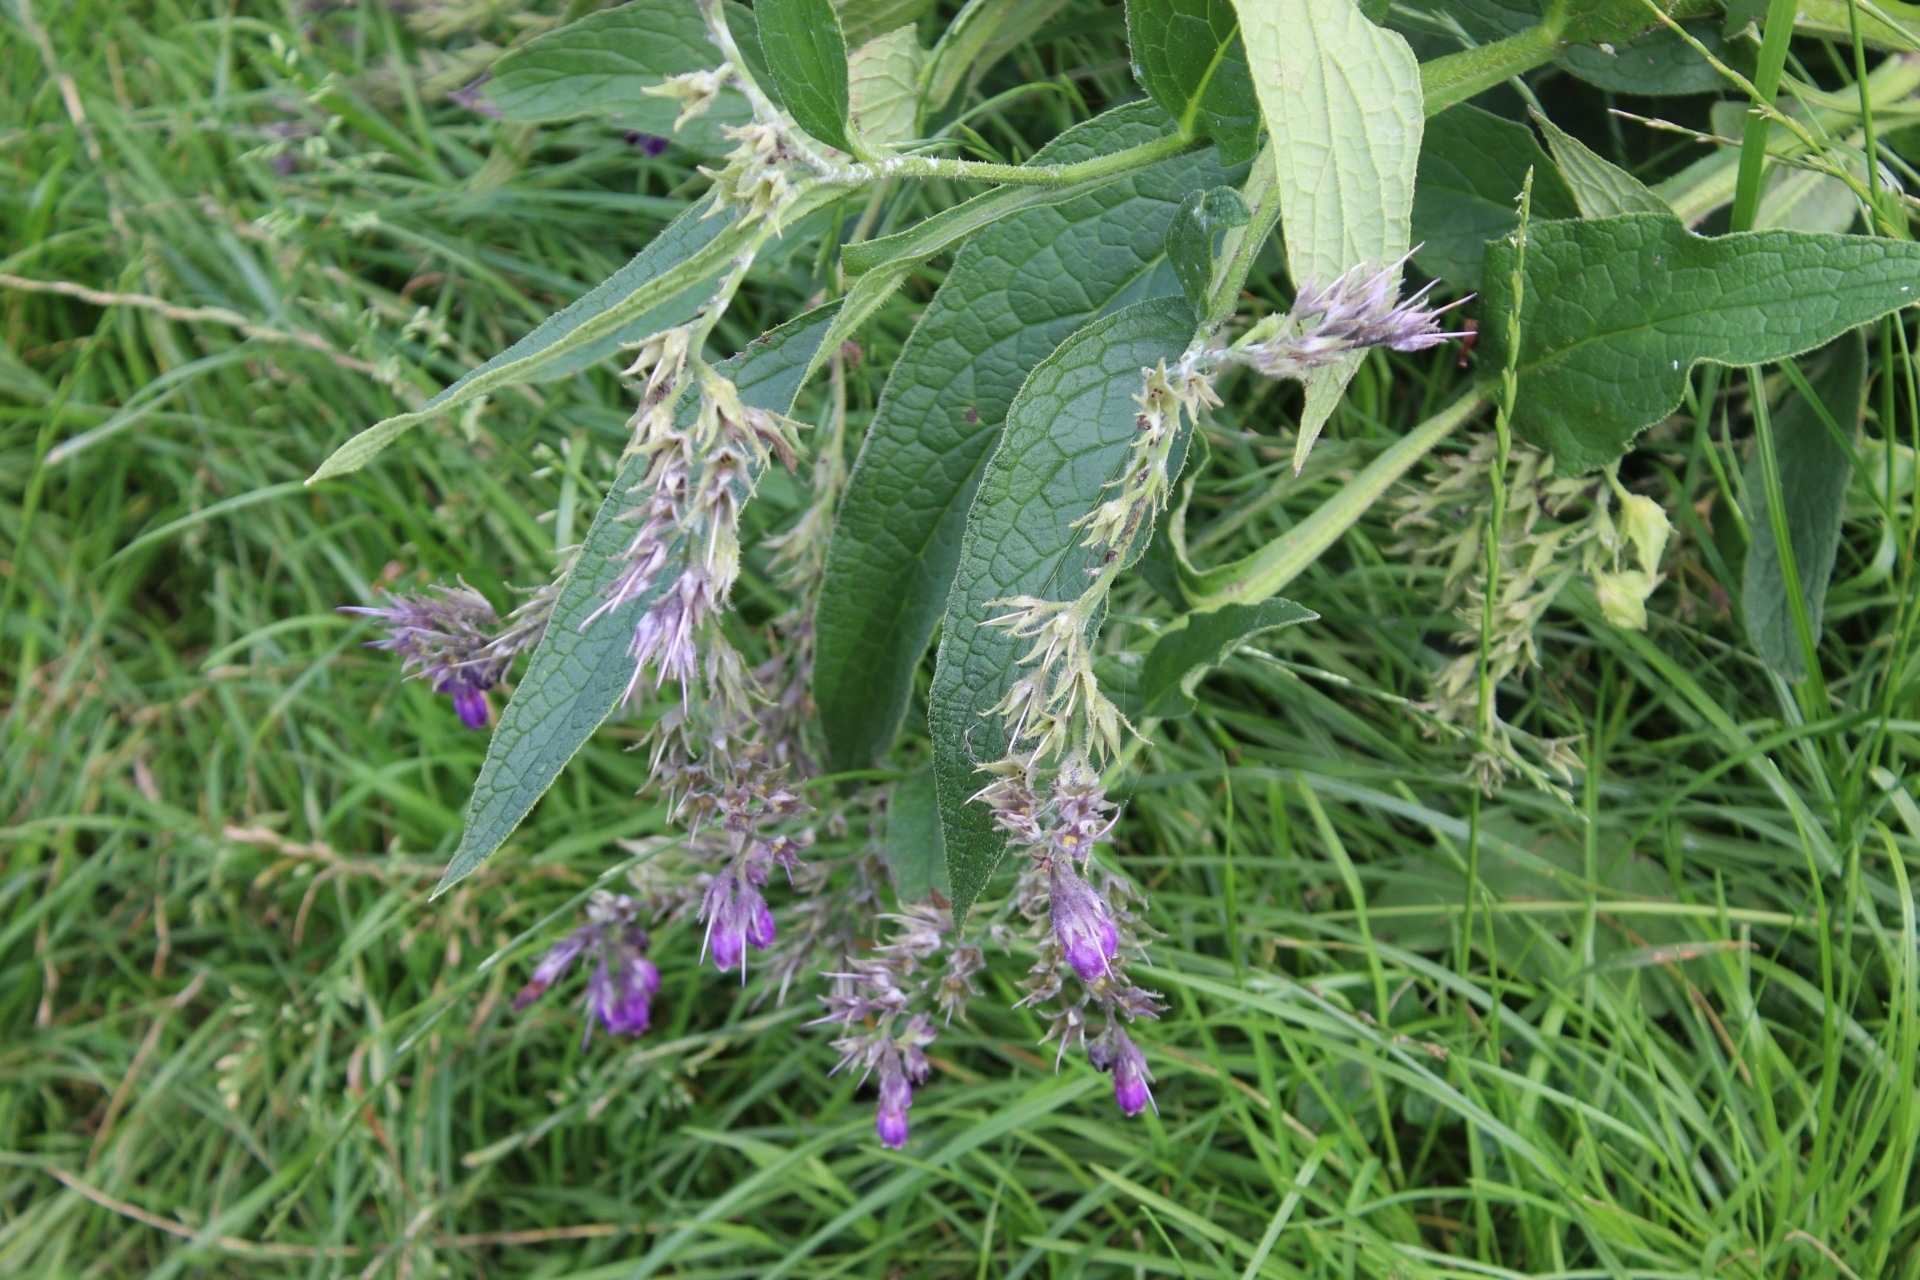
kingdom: Plantae
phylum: Tracheophyta
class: Magnoliopsida
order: Boraginales
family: Boraginaceae
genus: Symphytum
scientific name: Symphytum officinale
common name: Common comfrey
